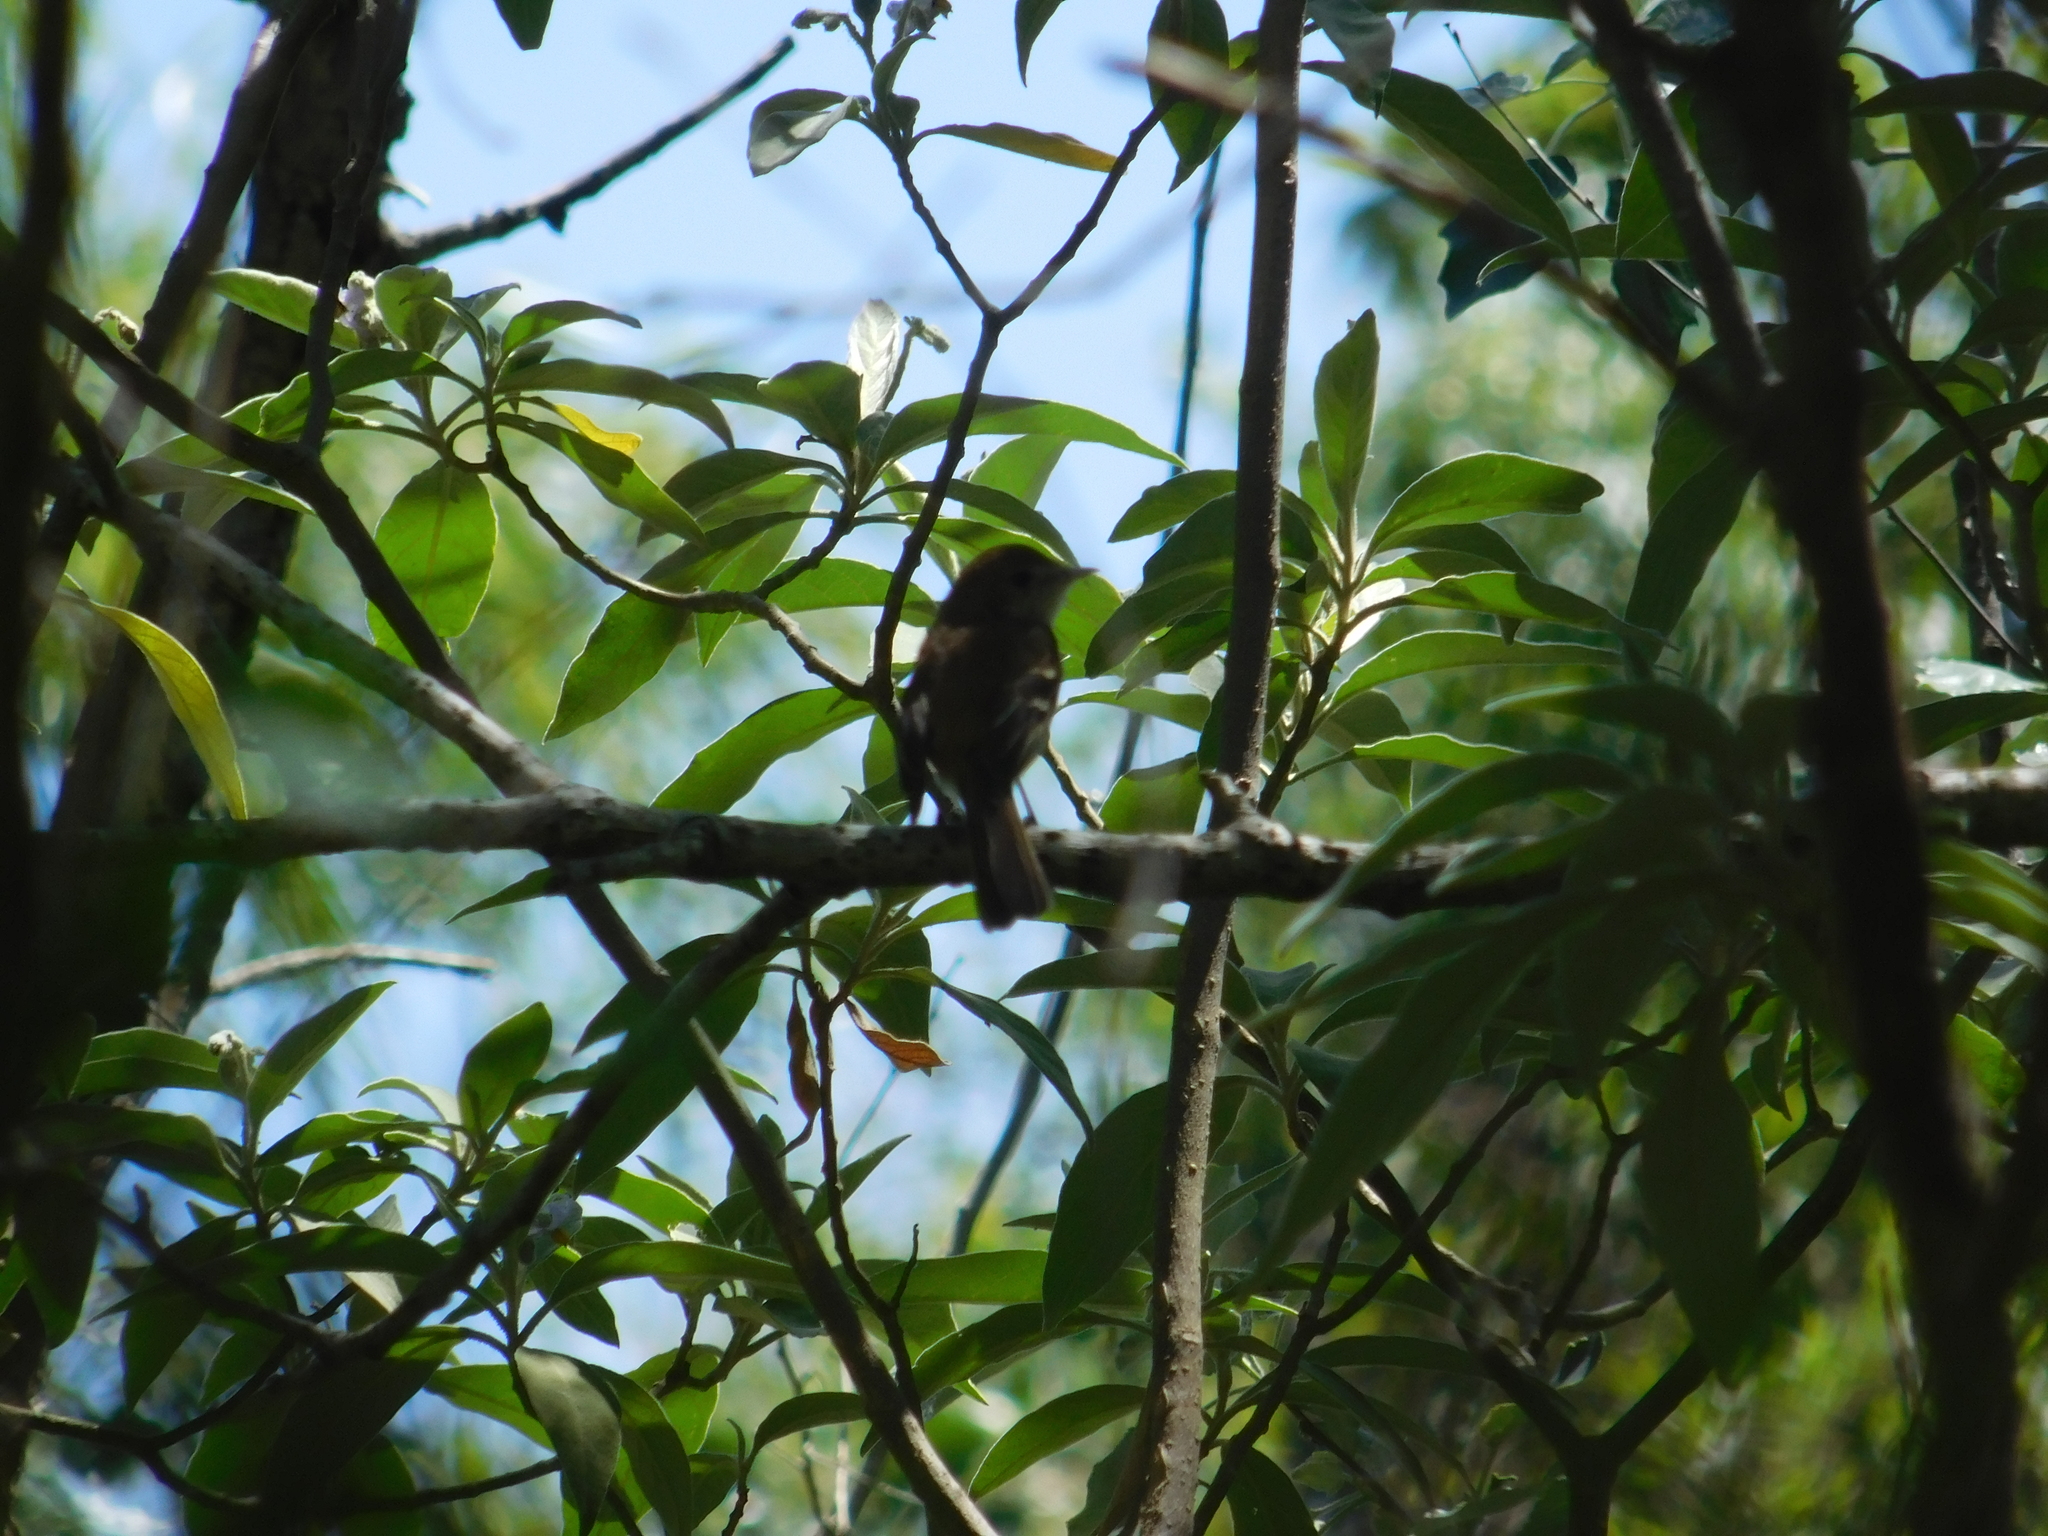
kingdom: Animalia
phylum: Chordata
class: Aves
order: Passeriformes
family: Tyrannidae
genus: Myiophobus
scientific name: Myiophobus fasciatus
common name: Bran-colored flycatcher
